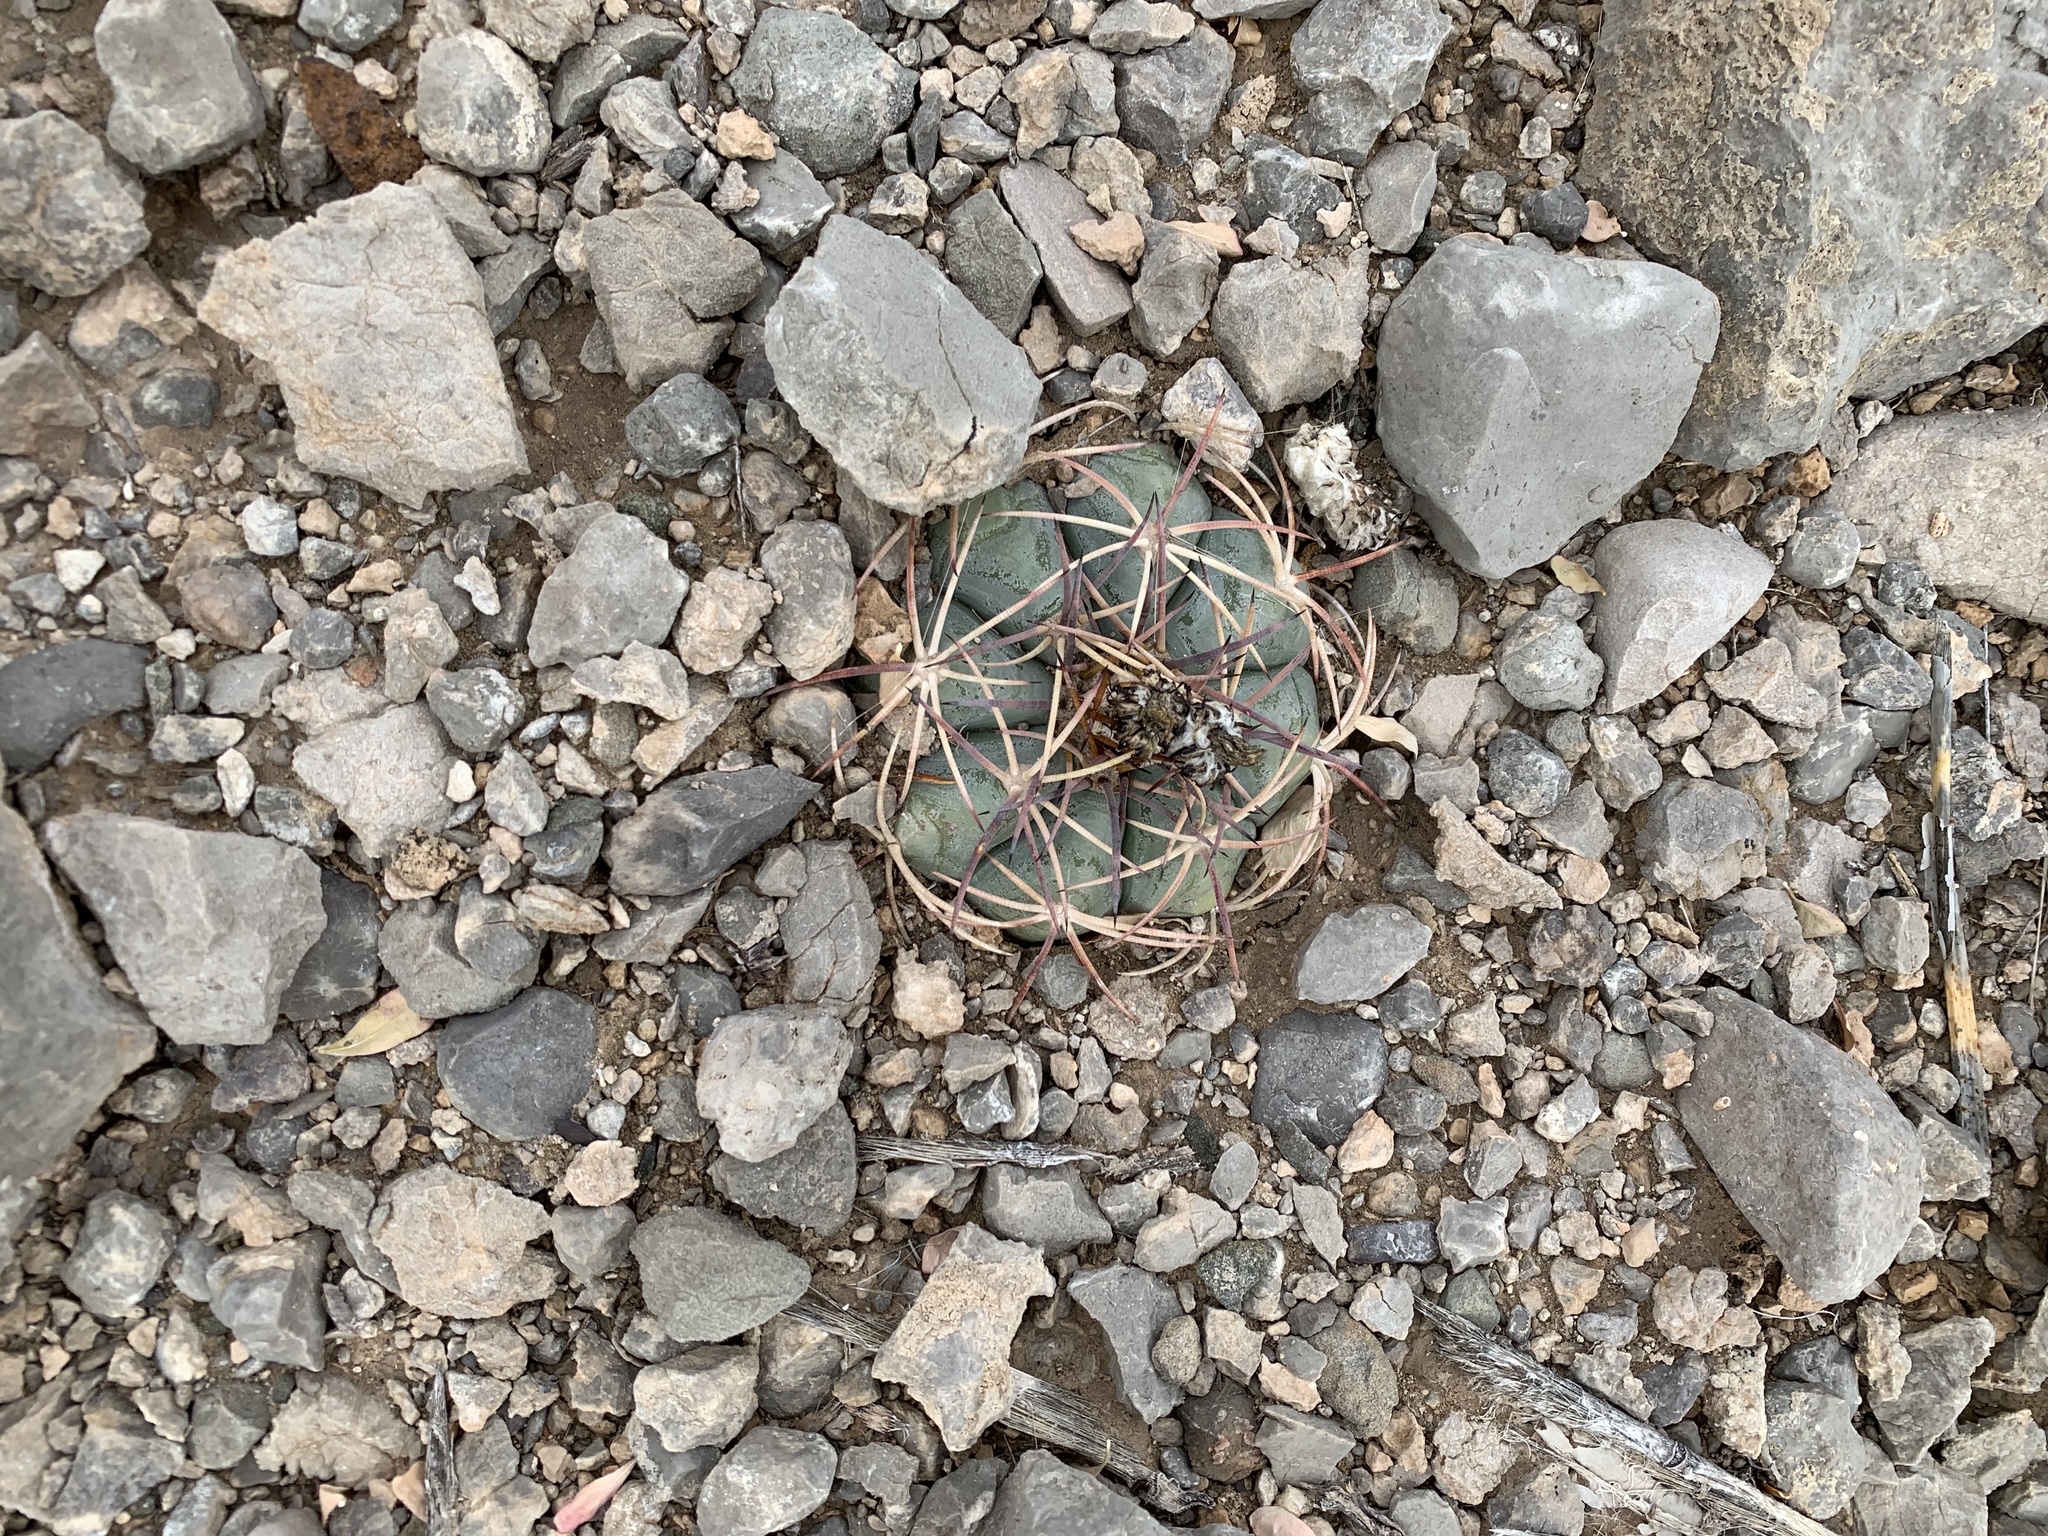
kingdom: Plantae
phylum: Tracheophyta
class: Magnoliopsida
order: Caryophyllales
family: Cactaceae
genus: Echinocactus
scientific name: Echinocactus horizonthalonius
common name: Devilshead
